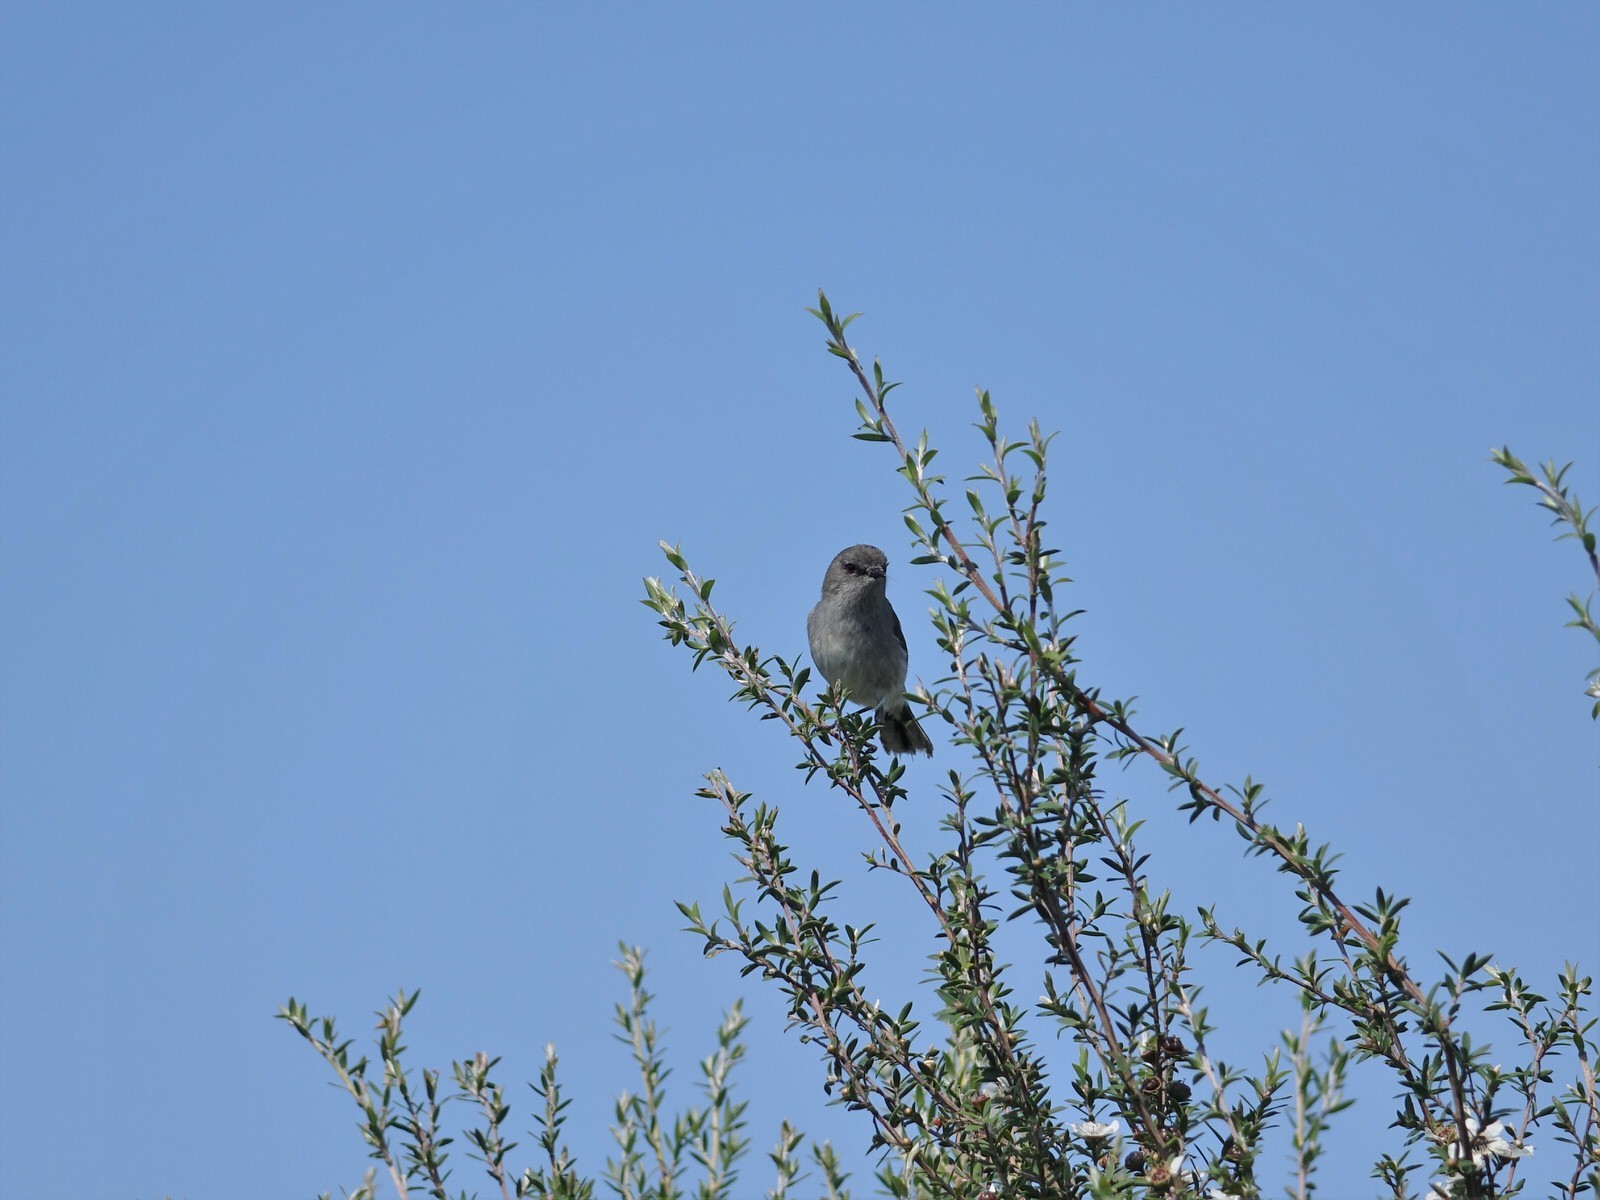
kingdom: Animalia
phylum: Chordata
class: Aves
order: Passeriformes
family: Acanthizidae
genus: Gerygone
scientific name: Gerygone igata
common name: Grey gerygone
